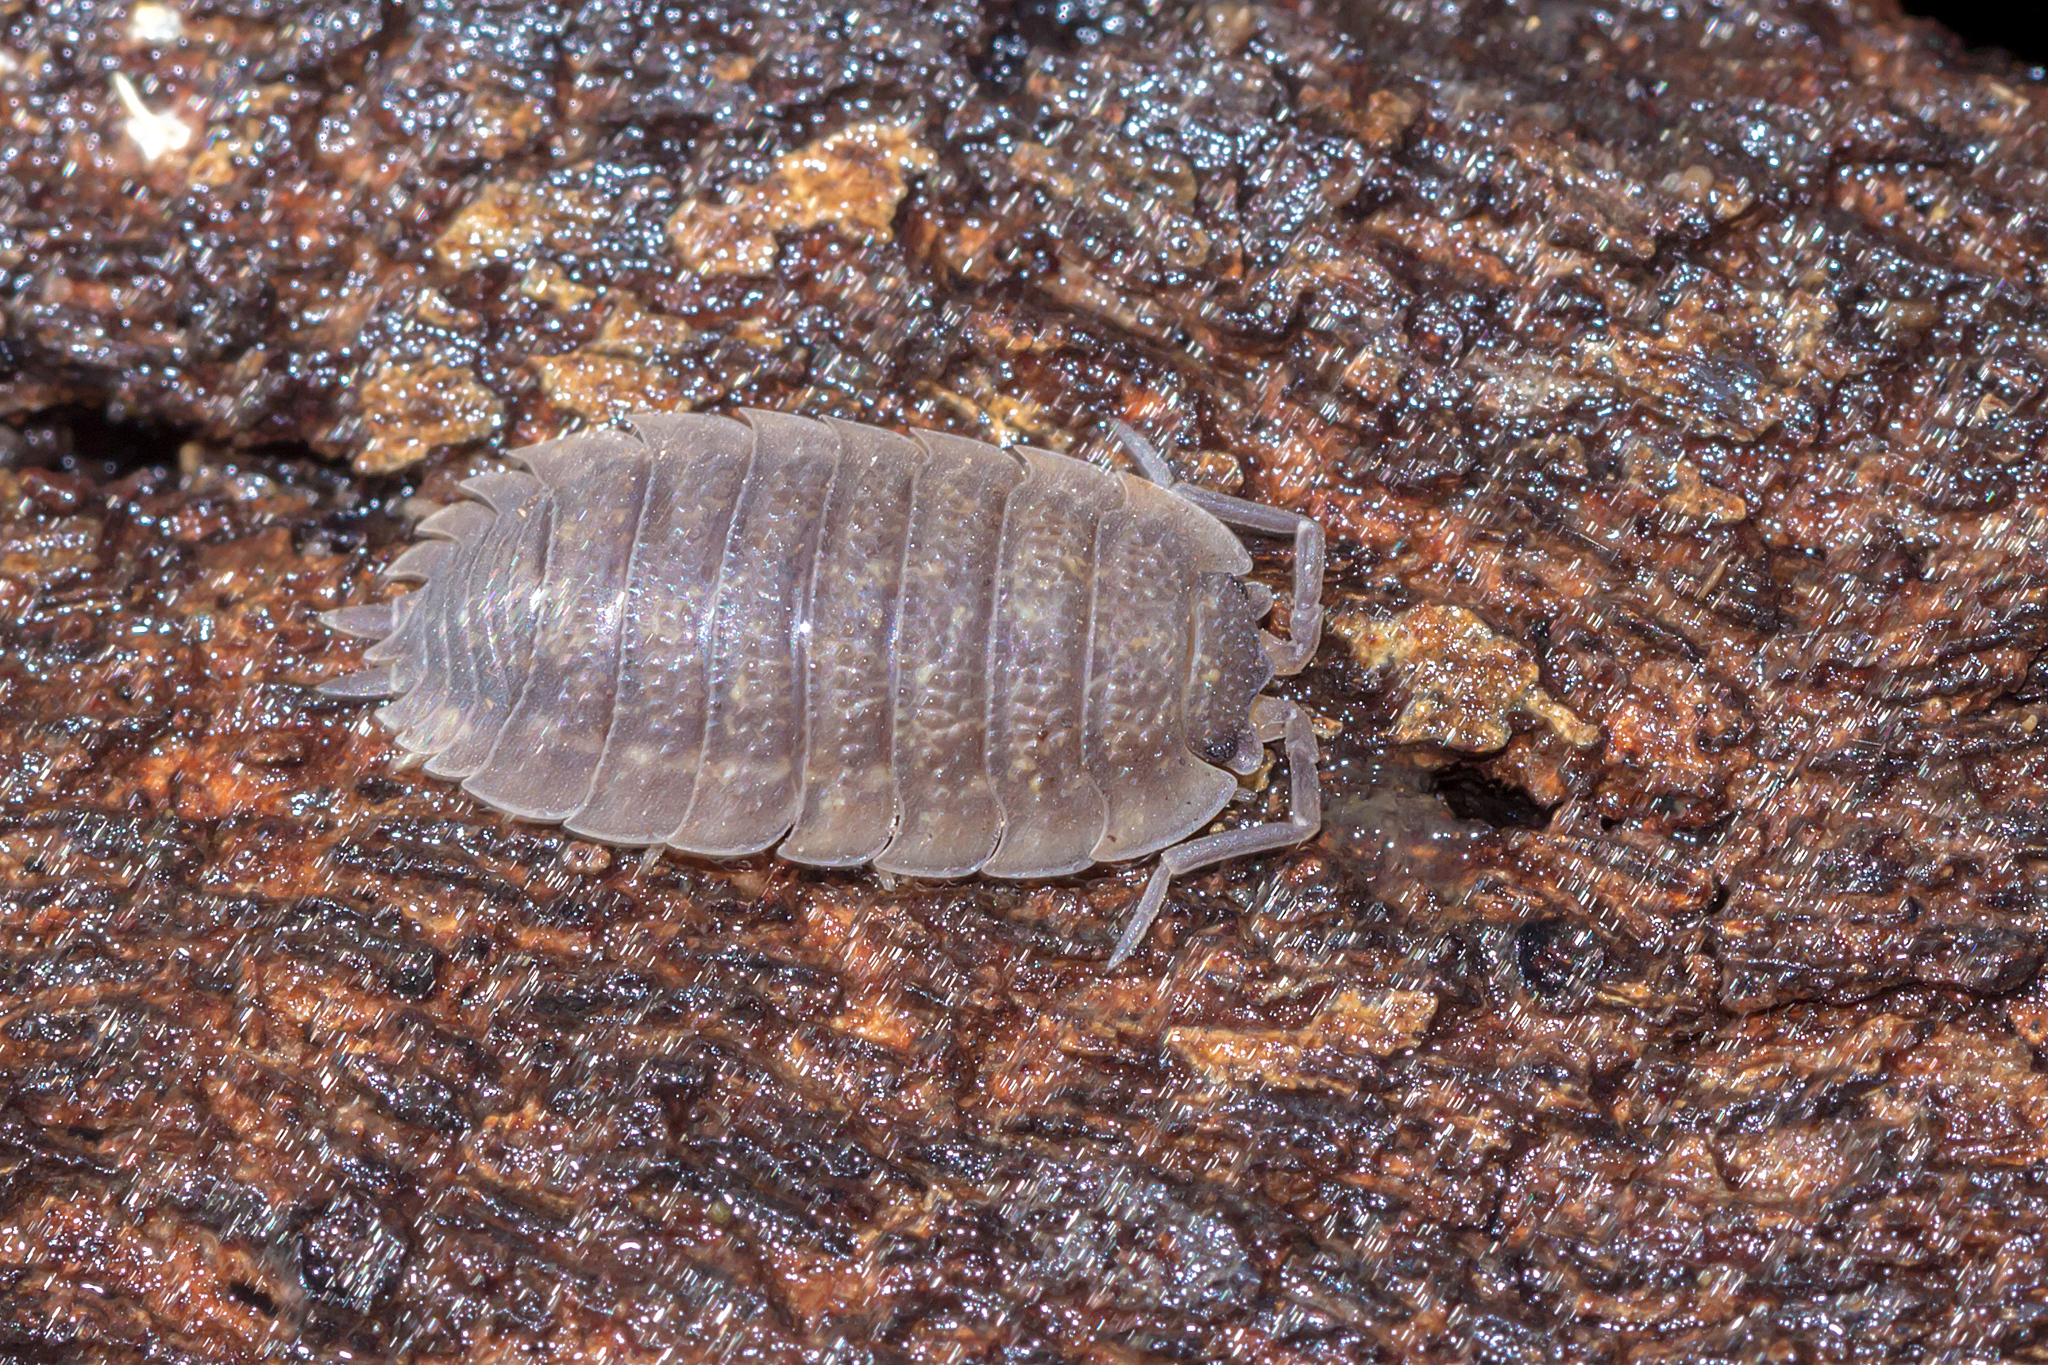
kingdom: Animalia
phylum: Arthropoda
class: Malacostraca
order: Isopoda
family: Porcellionidae
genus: Porcellio
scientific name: Porcellio scaber
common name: Common rough woodlouse
